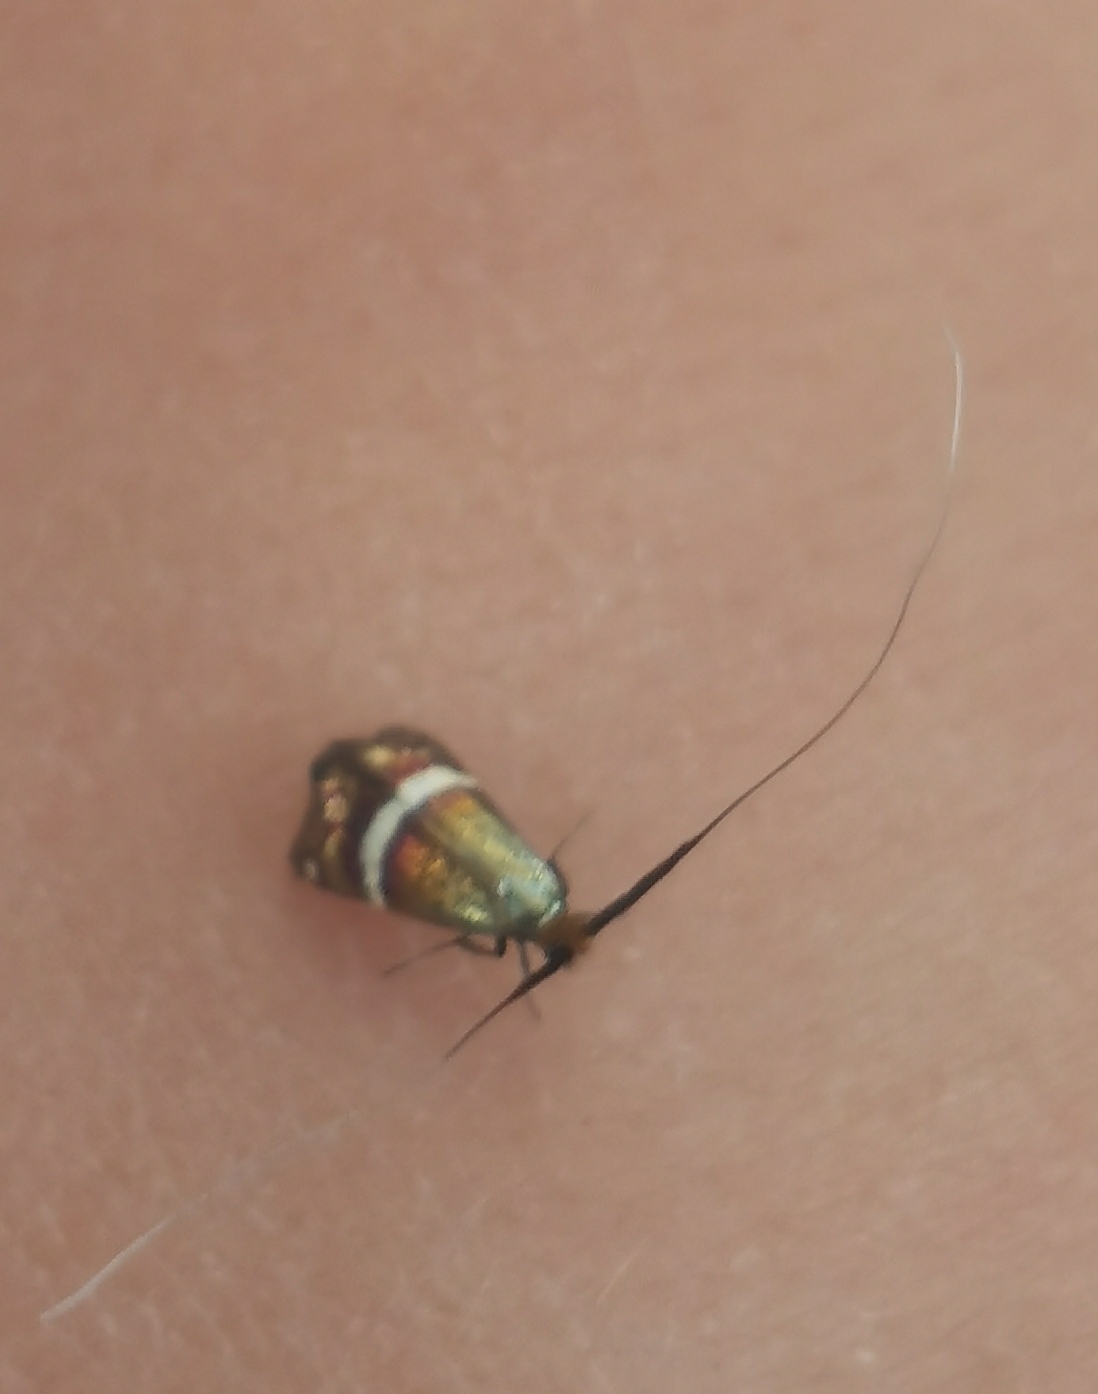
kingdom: Animalia
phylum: Arthropoda
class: Insecta
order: Lepidoptera
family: Adelidae
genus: Adela
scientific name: Adela australis
